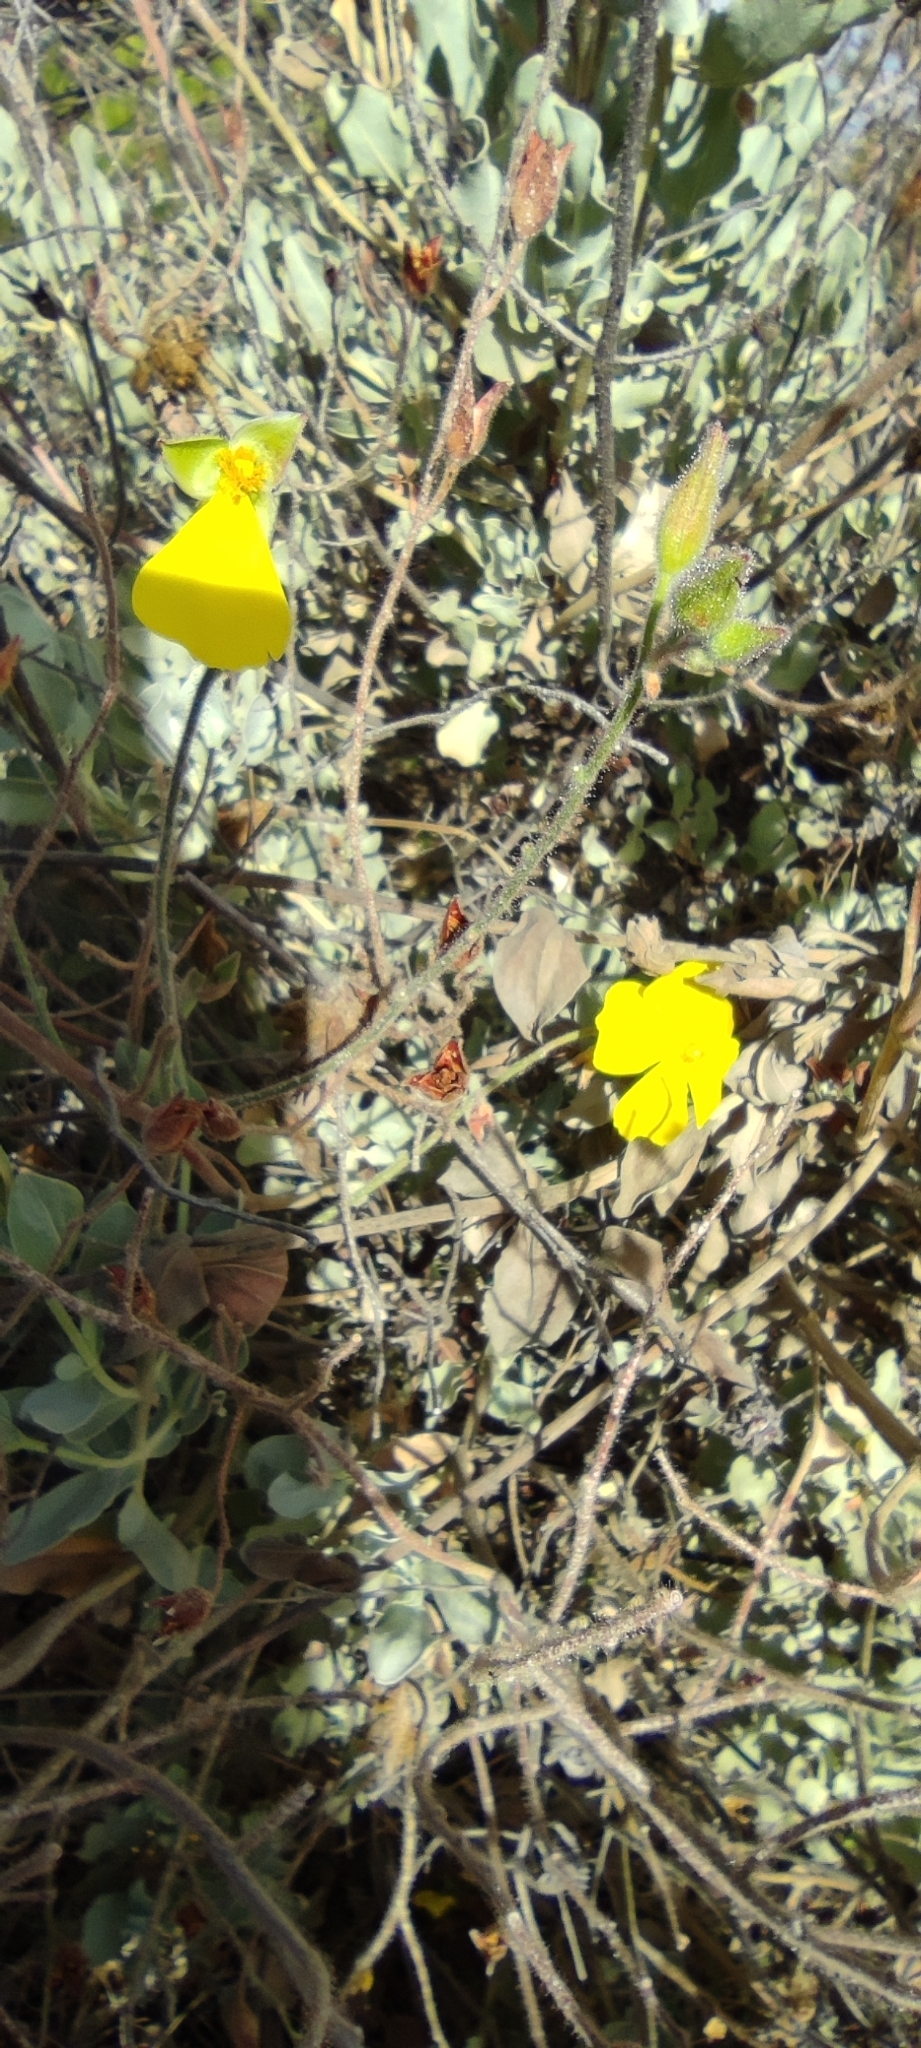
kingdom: Plantae
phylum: Tracheophyta
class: Magnoliopsida
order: Malvales
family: Cistaceae
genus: Halimium
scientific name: Halimium atriplicifolium
